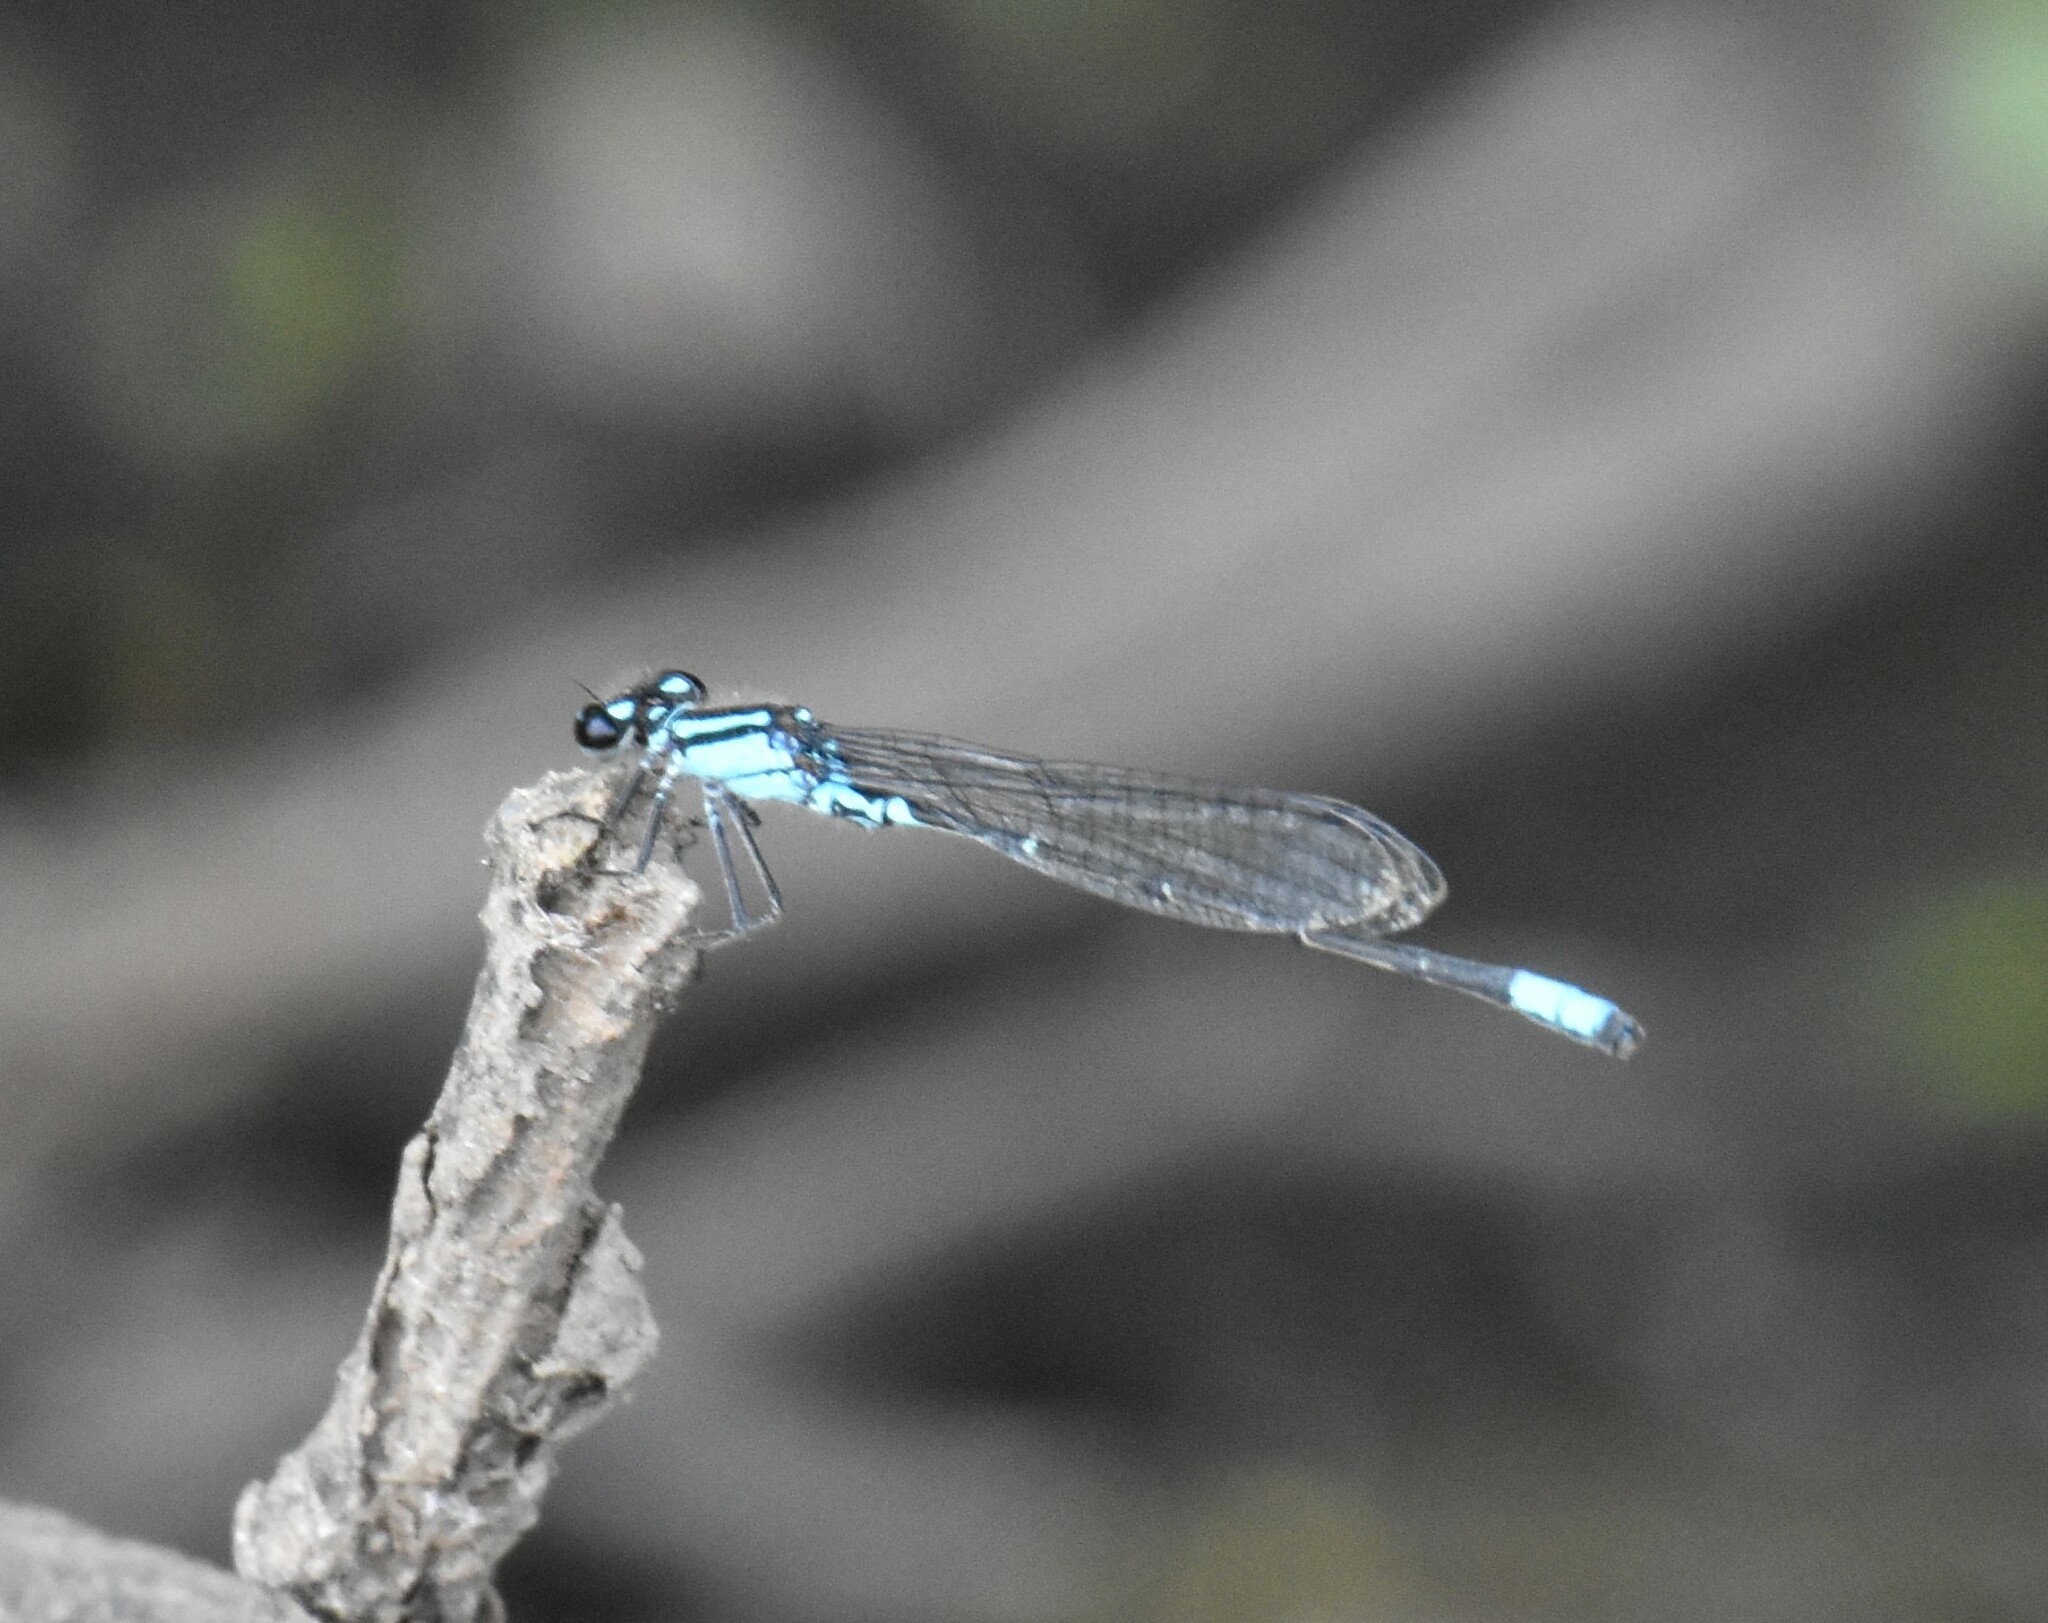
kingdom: Animalia
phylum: Arthropoda
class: Insecta
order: Odonata
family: Coenagrionidae
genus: Enallagma
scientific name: Enallagma geminatum
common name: Skimming bluet
